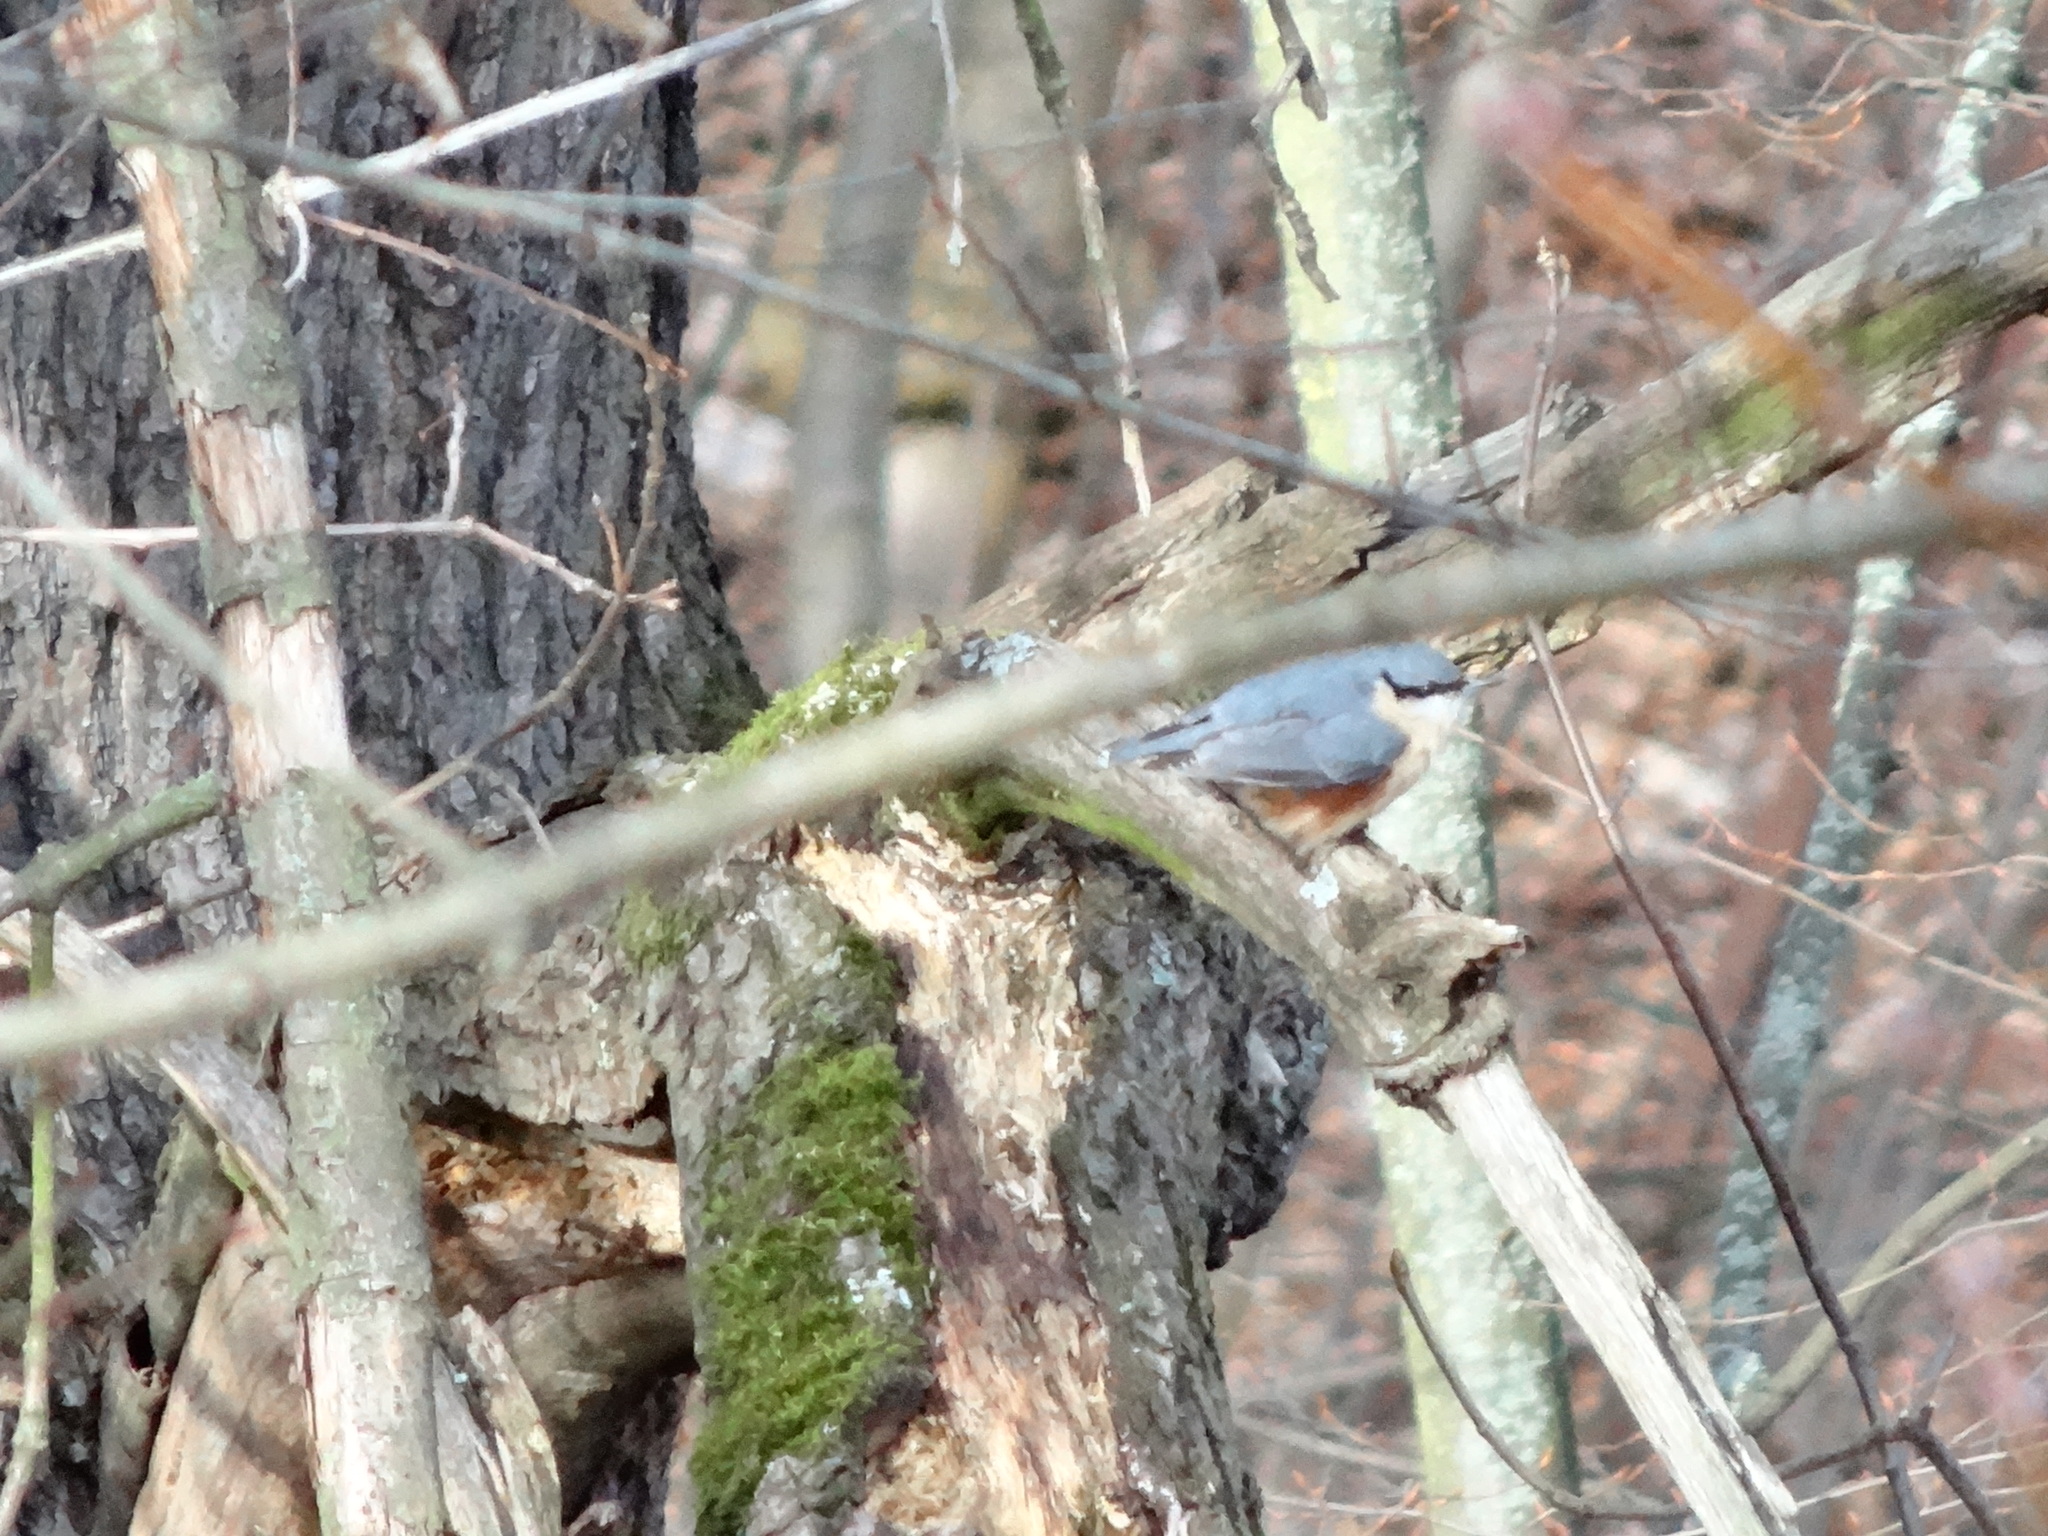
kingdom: Animalia
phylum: Chordata
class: Aves
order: Passeriformes
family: Sittidae
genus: Sitta
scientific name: Sitta europaea
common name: Eurasian nuthatch
